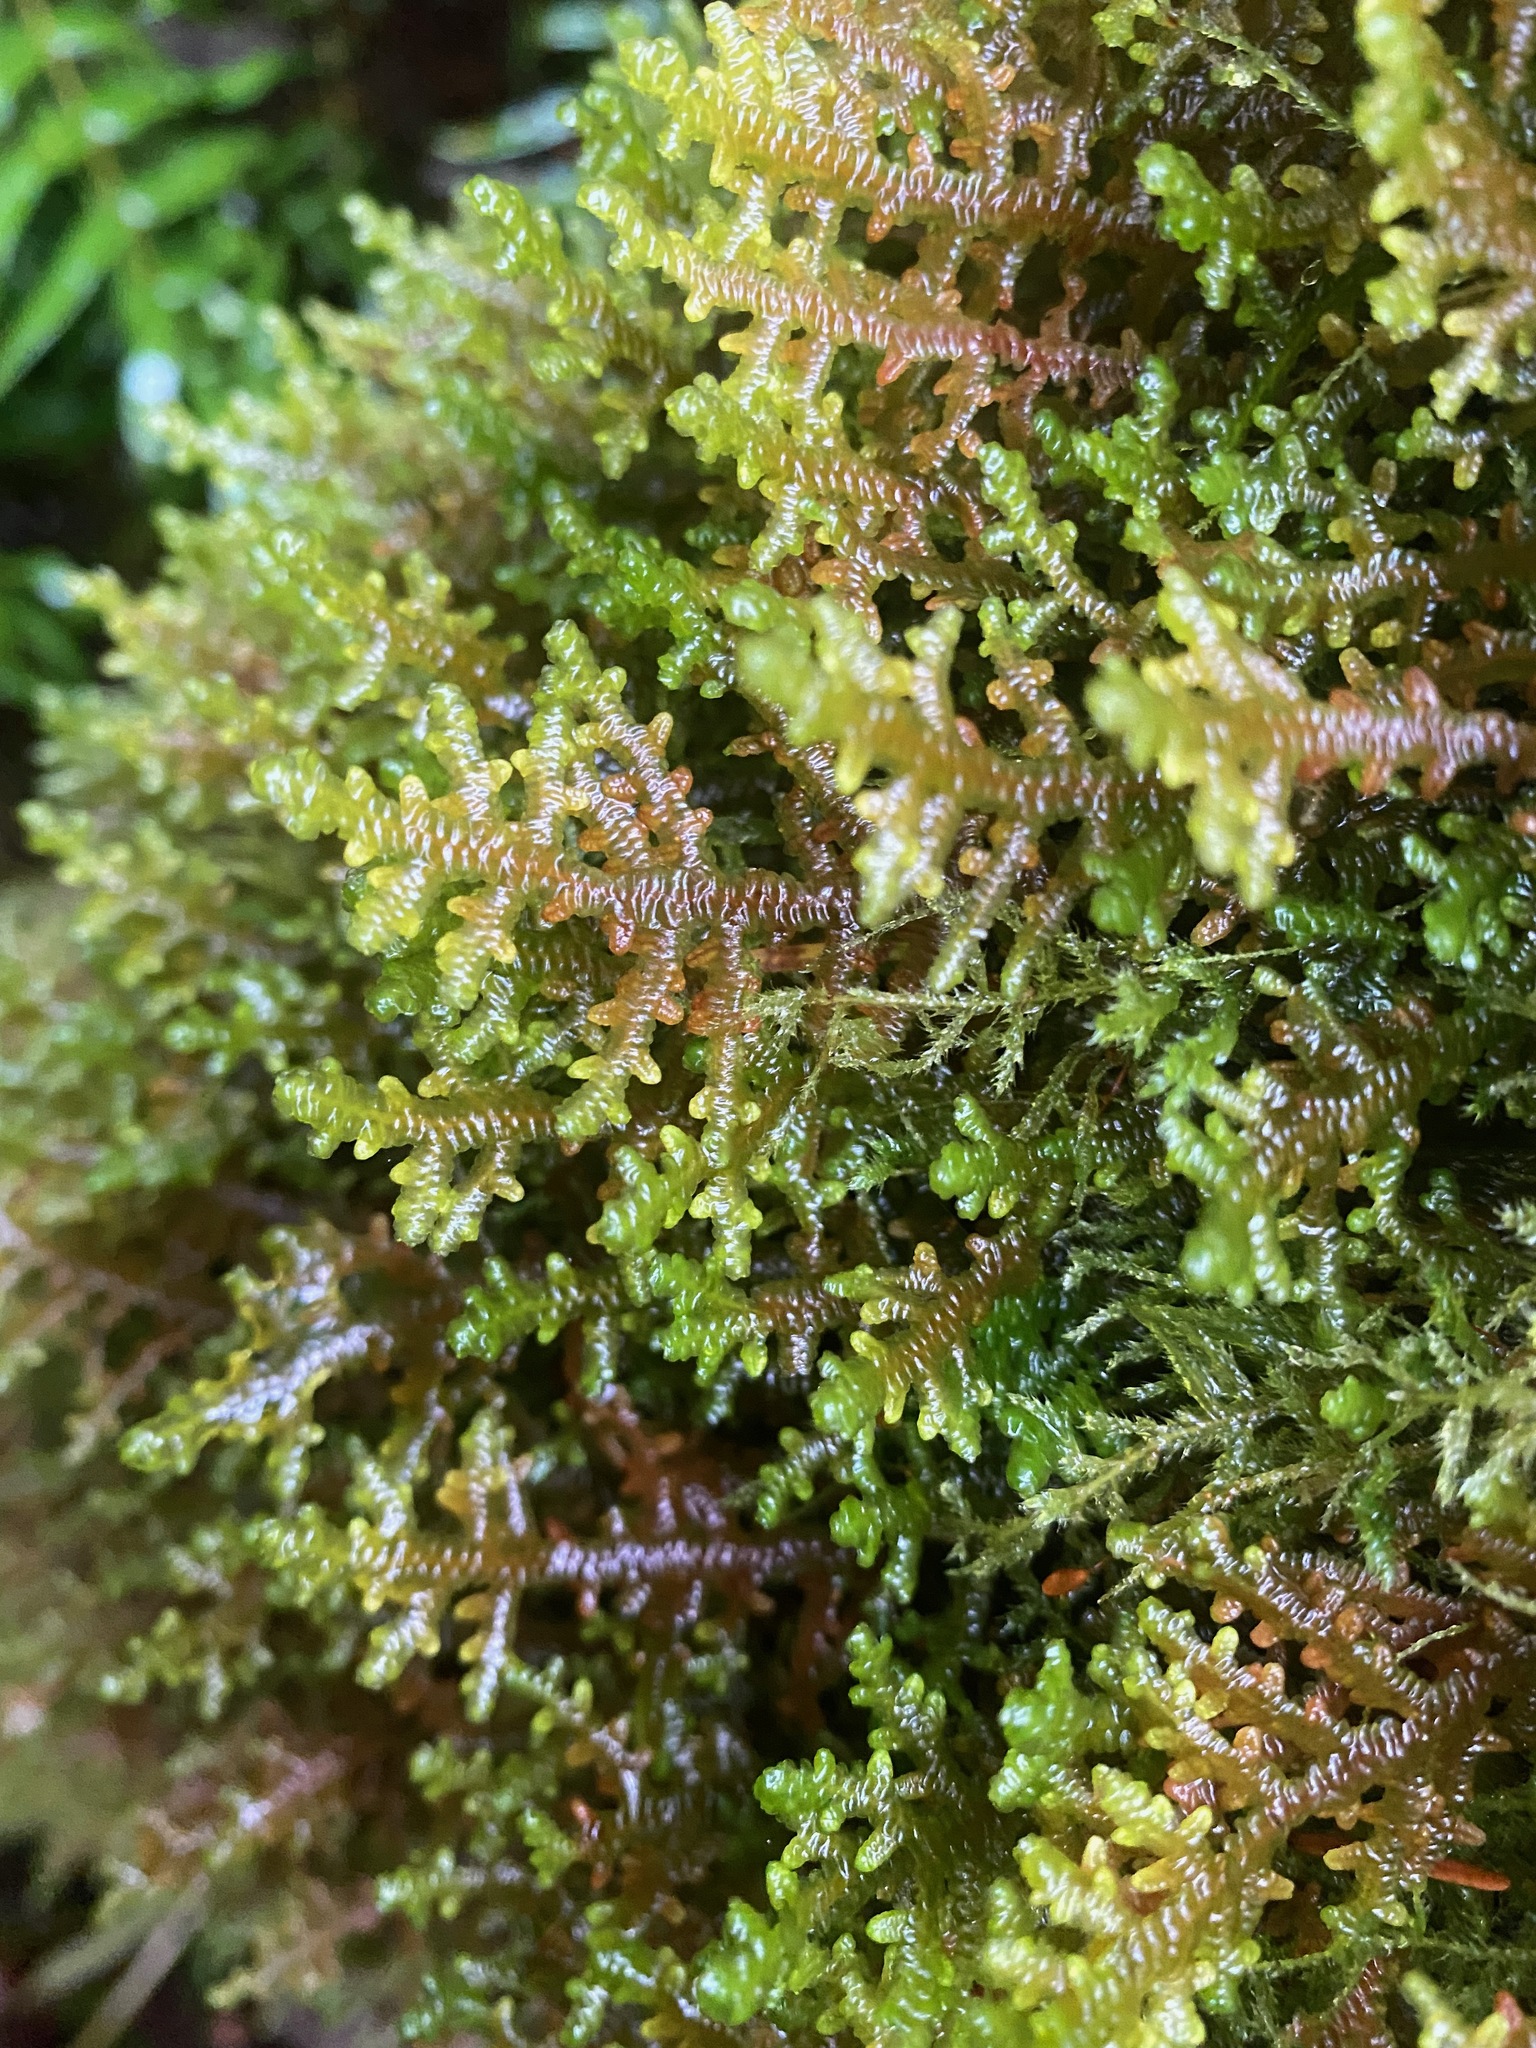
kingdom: Plantae
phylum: Marchantiophyta
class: Jungermanniopsida
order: Porellales
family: Porellaceae
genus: Porella
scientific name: Porella navicularis
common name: Tree ruffle liverwort
